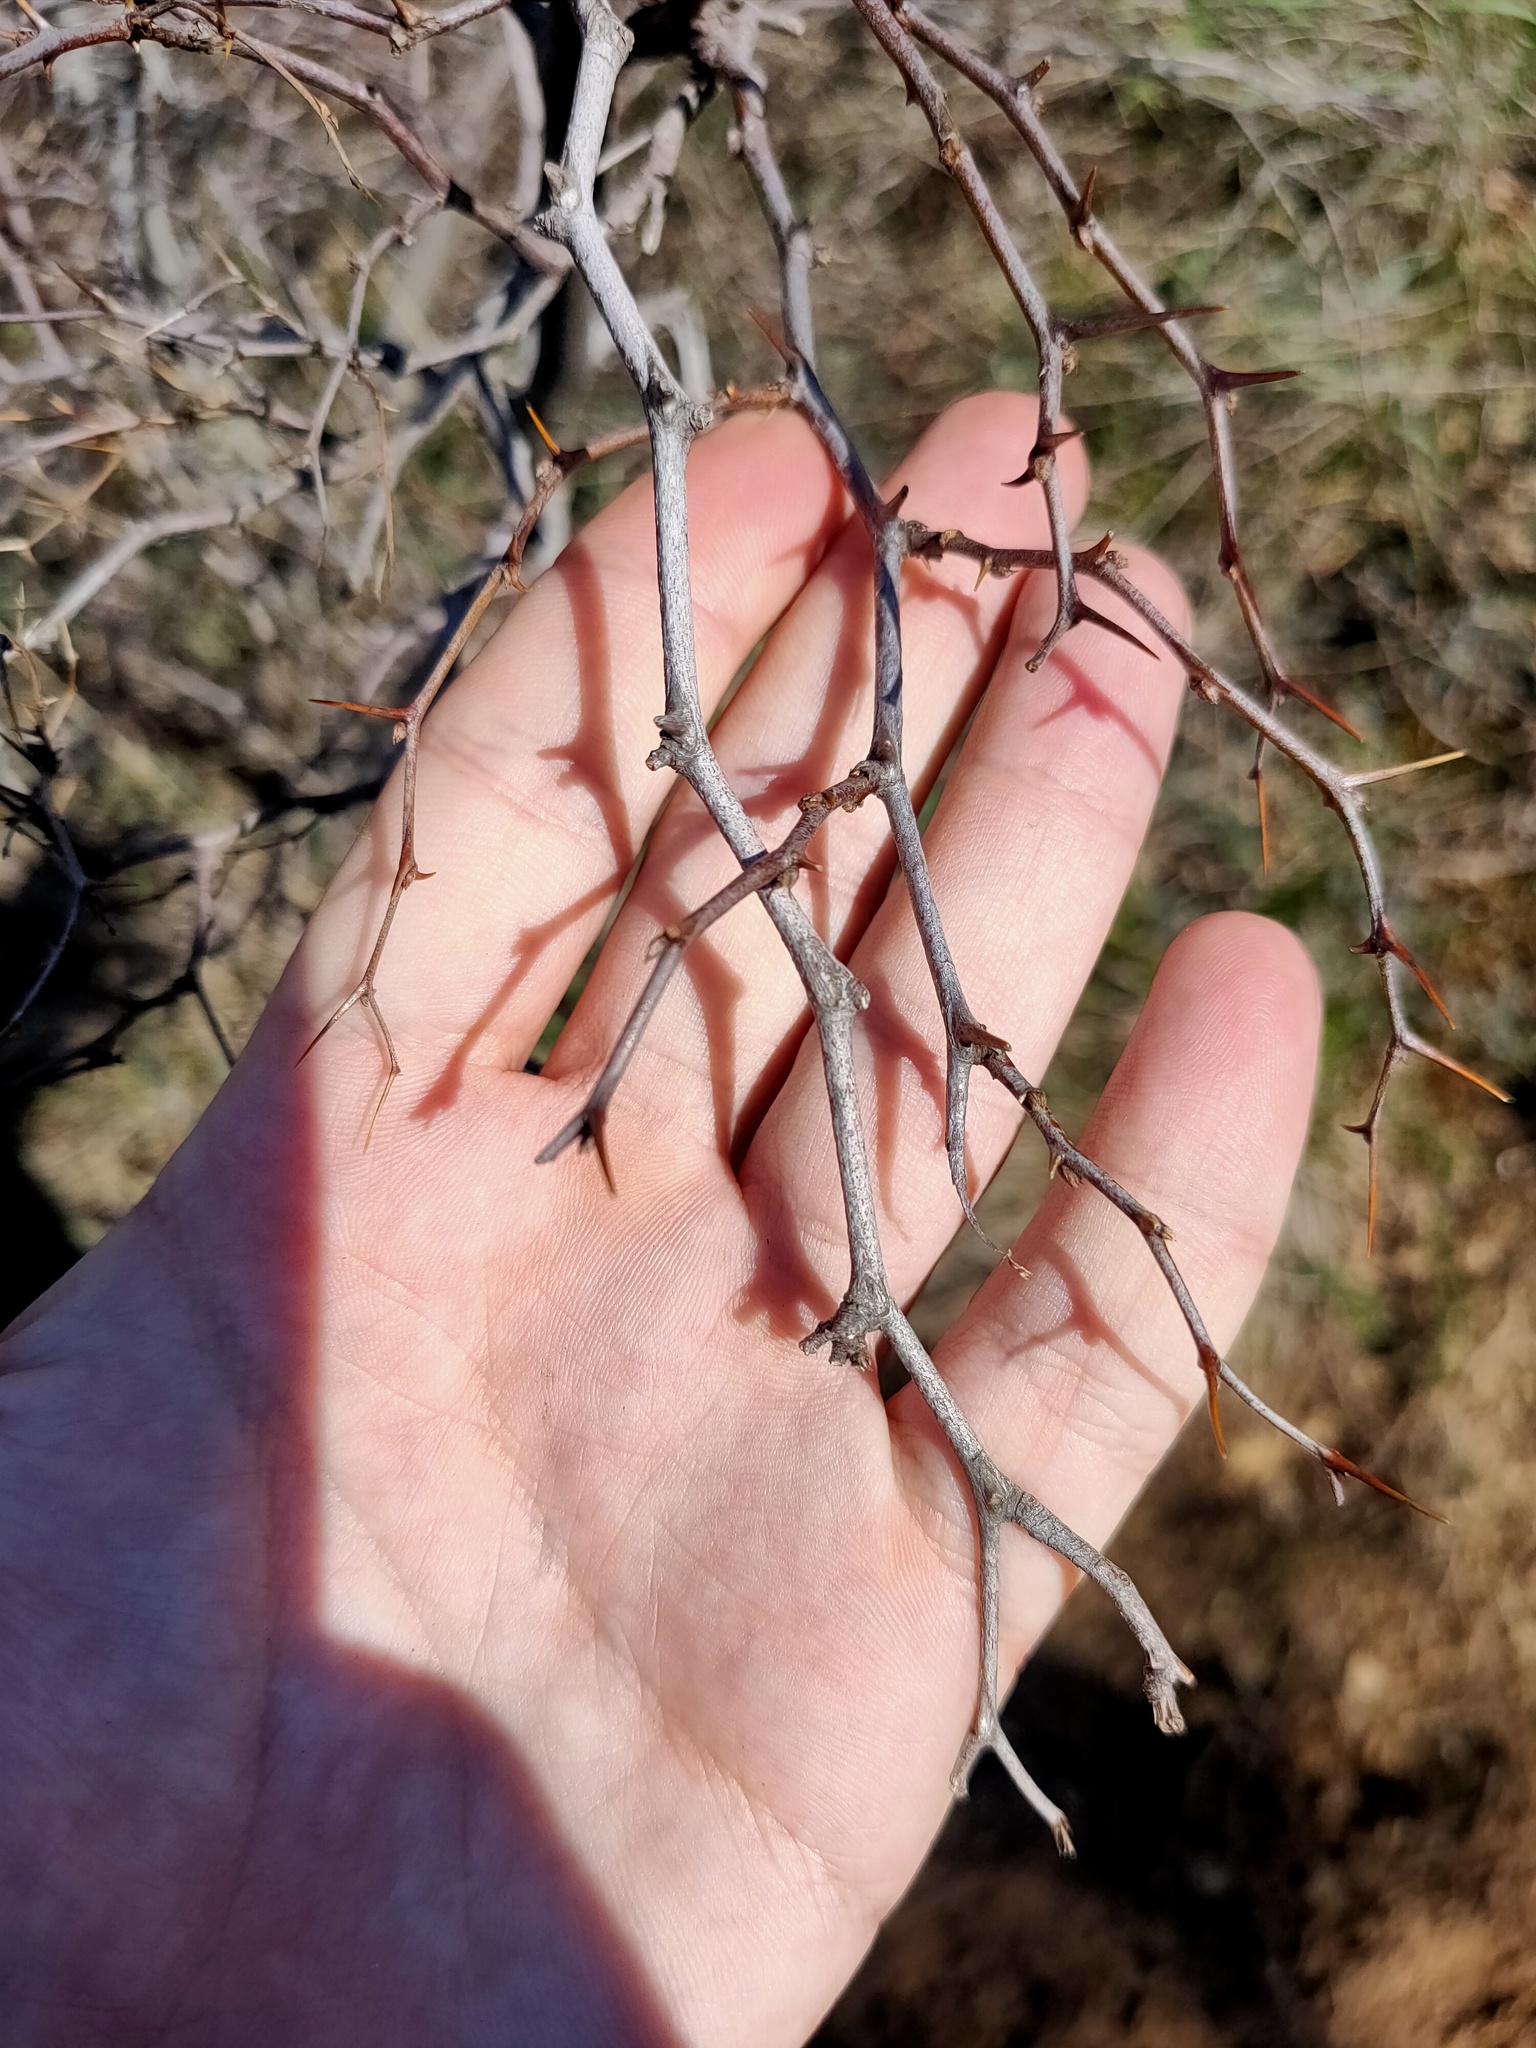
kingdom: Plantae
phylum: Tracheophyta
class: Magnoliopsida
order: Rosales
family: Rhamnaceae
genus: Paliurus
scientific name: Paliurus spina-christi
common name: Jeruselem thorn
